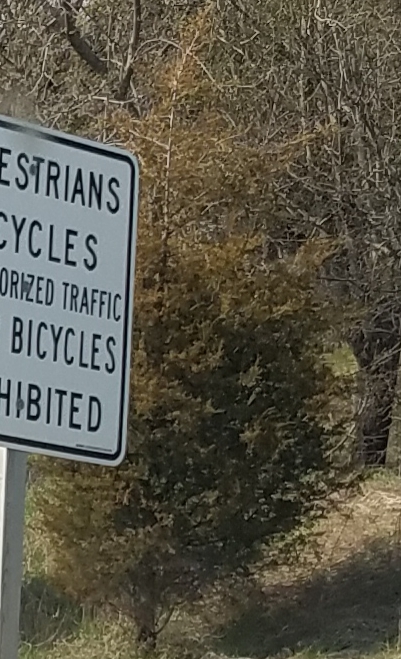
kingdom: Plantae
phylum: Tracheophyta
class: Pinopsida
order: Pinales
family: Cupressaceae
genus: Juniperus
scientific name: Juniperus virginiana
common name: Red juniper
